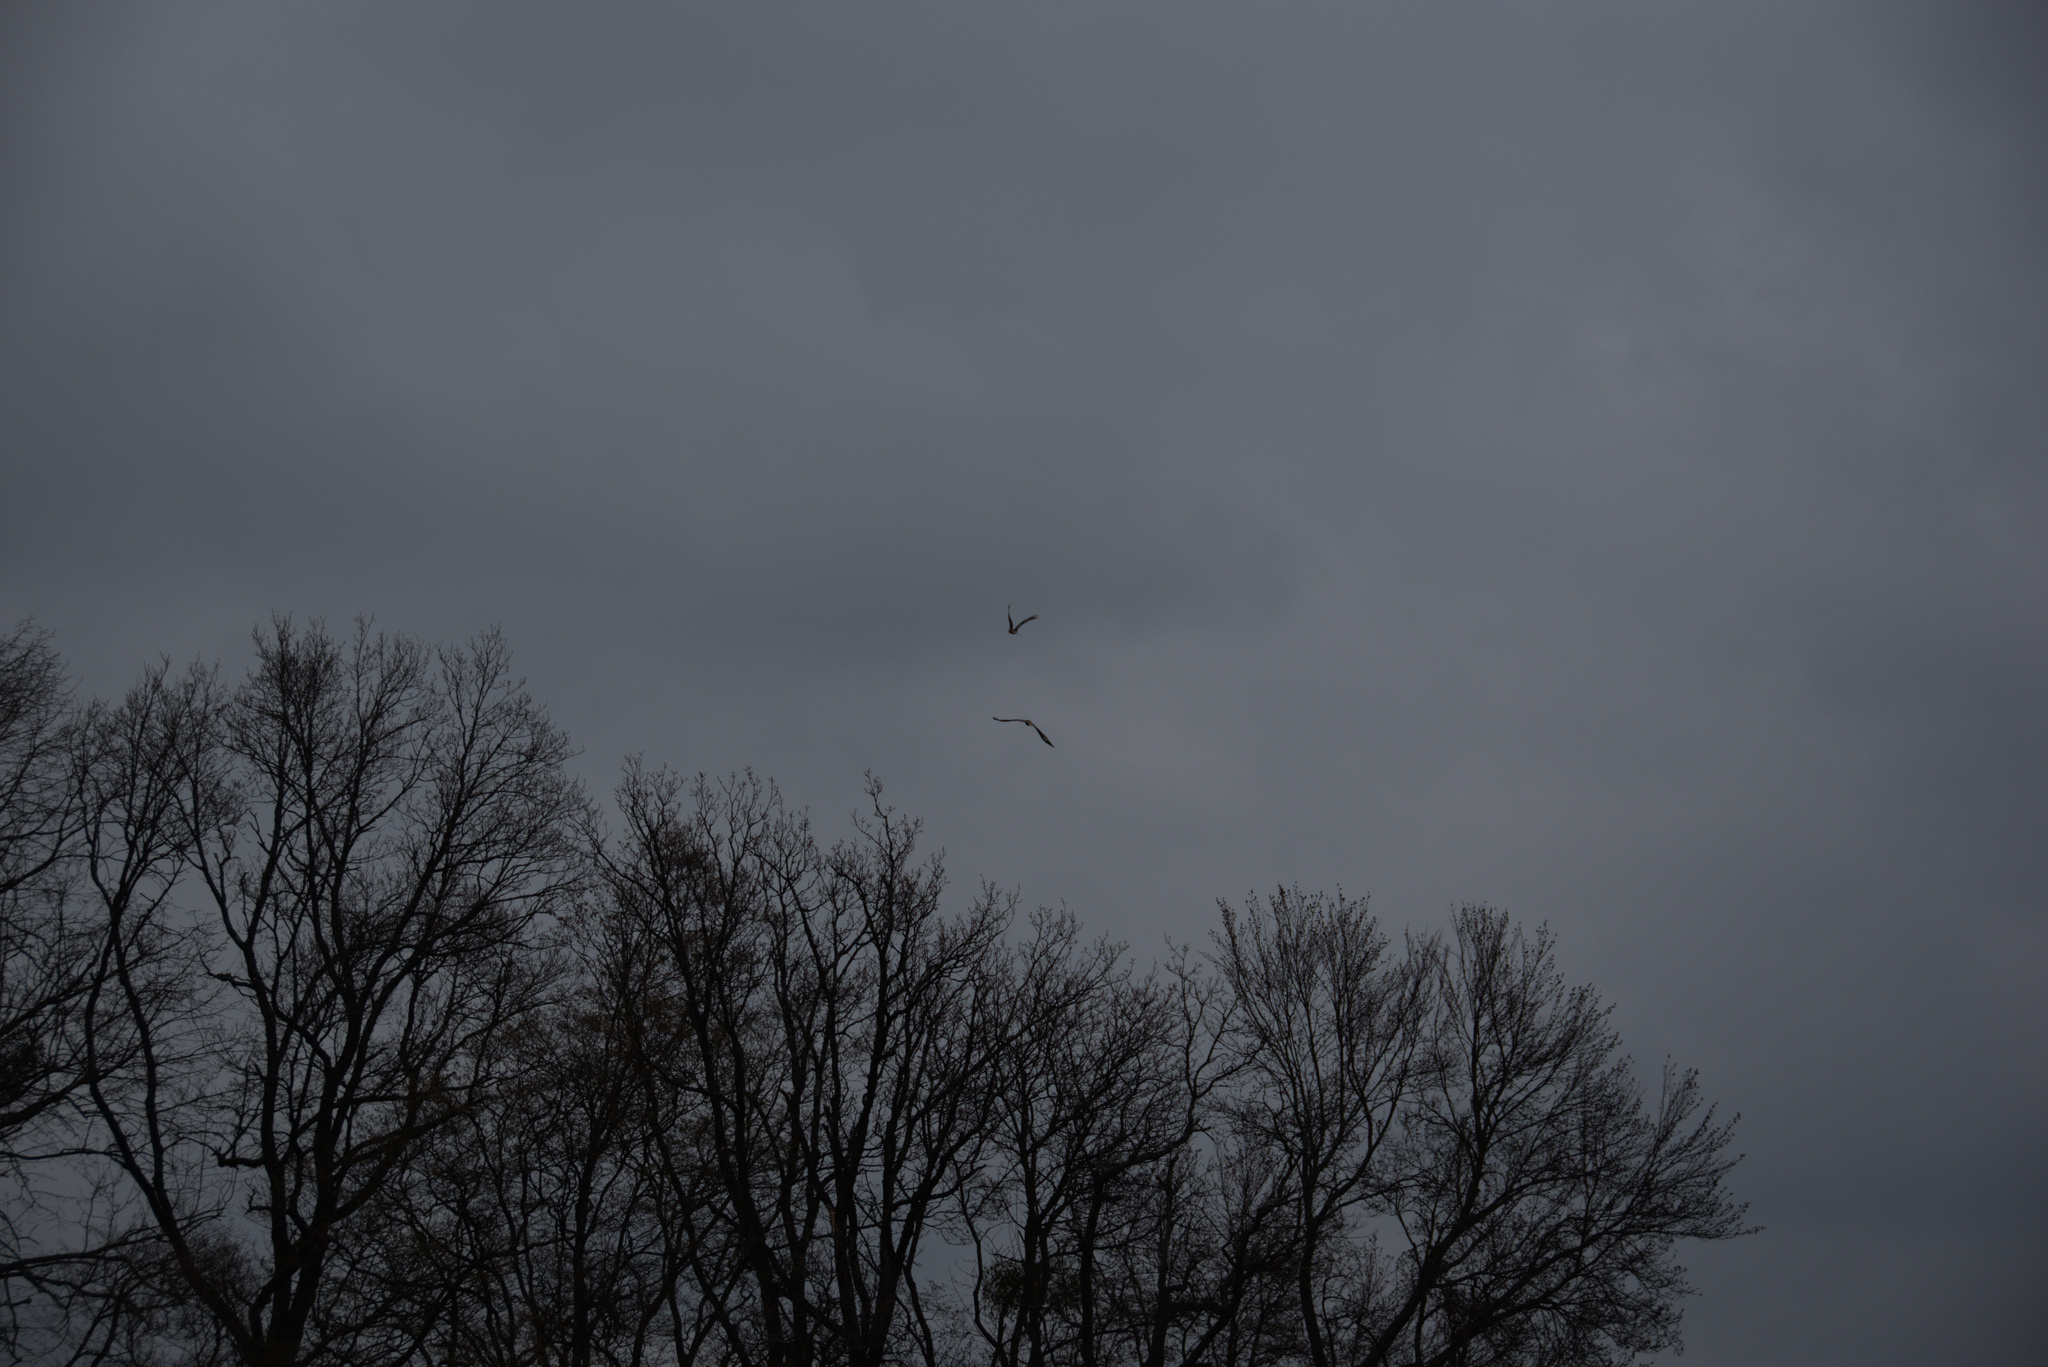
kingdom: Animalia
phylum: Chordata
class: Aves
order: Accipitriformes
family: Accipitridae
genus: Milvus
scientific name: Milvus milvus
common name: Red kite
